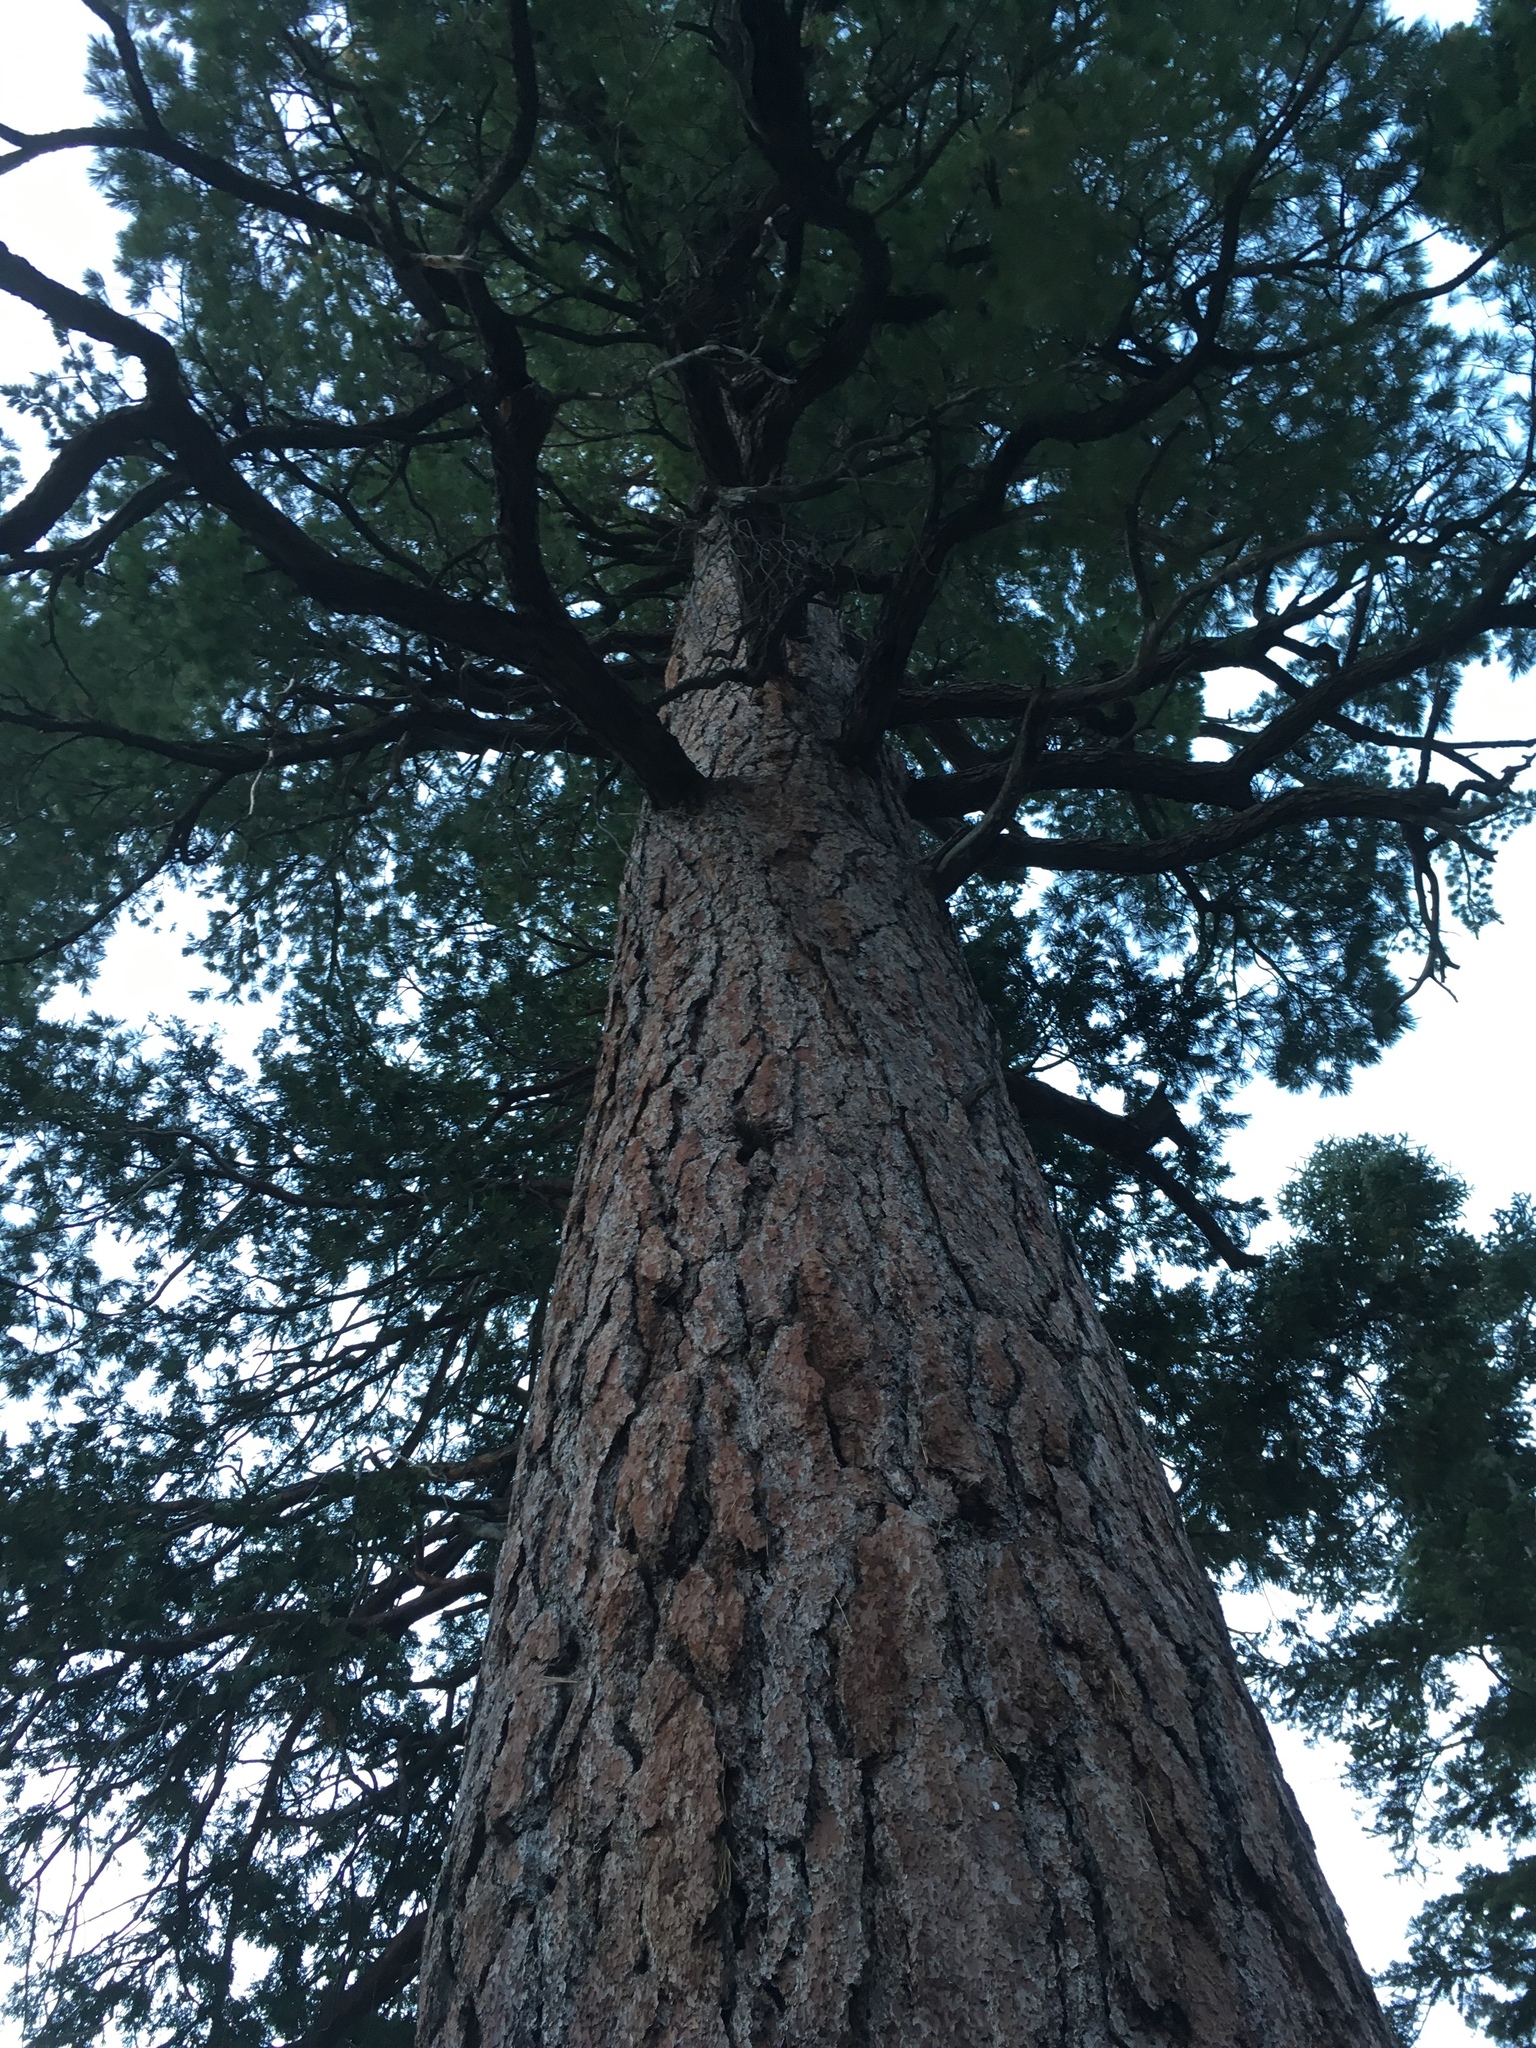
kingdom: Plantae
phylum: Tracheophyta
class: Pinopsida
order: Pinales
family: Pinaceae
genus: Pinus
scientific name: Pinus lambertiana
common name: Sugar pine
